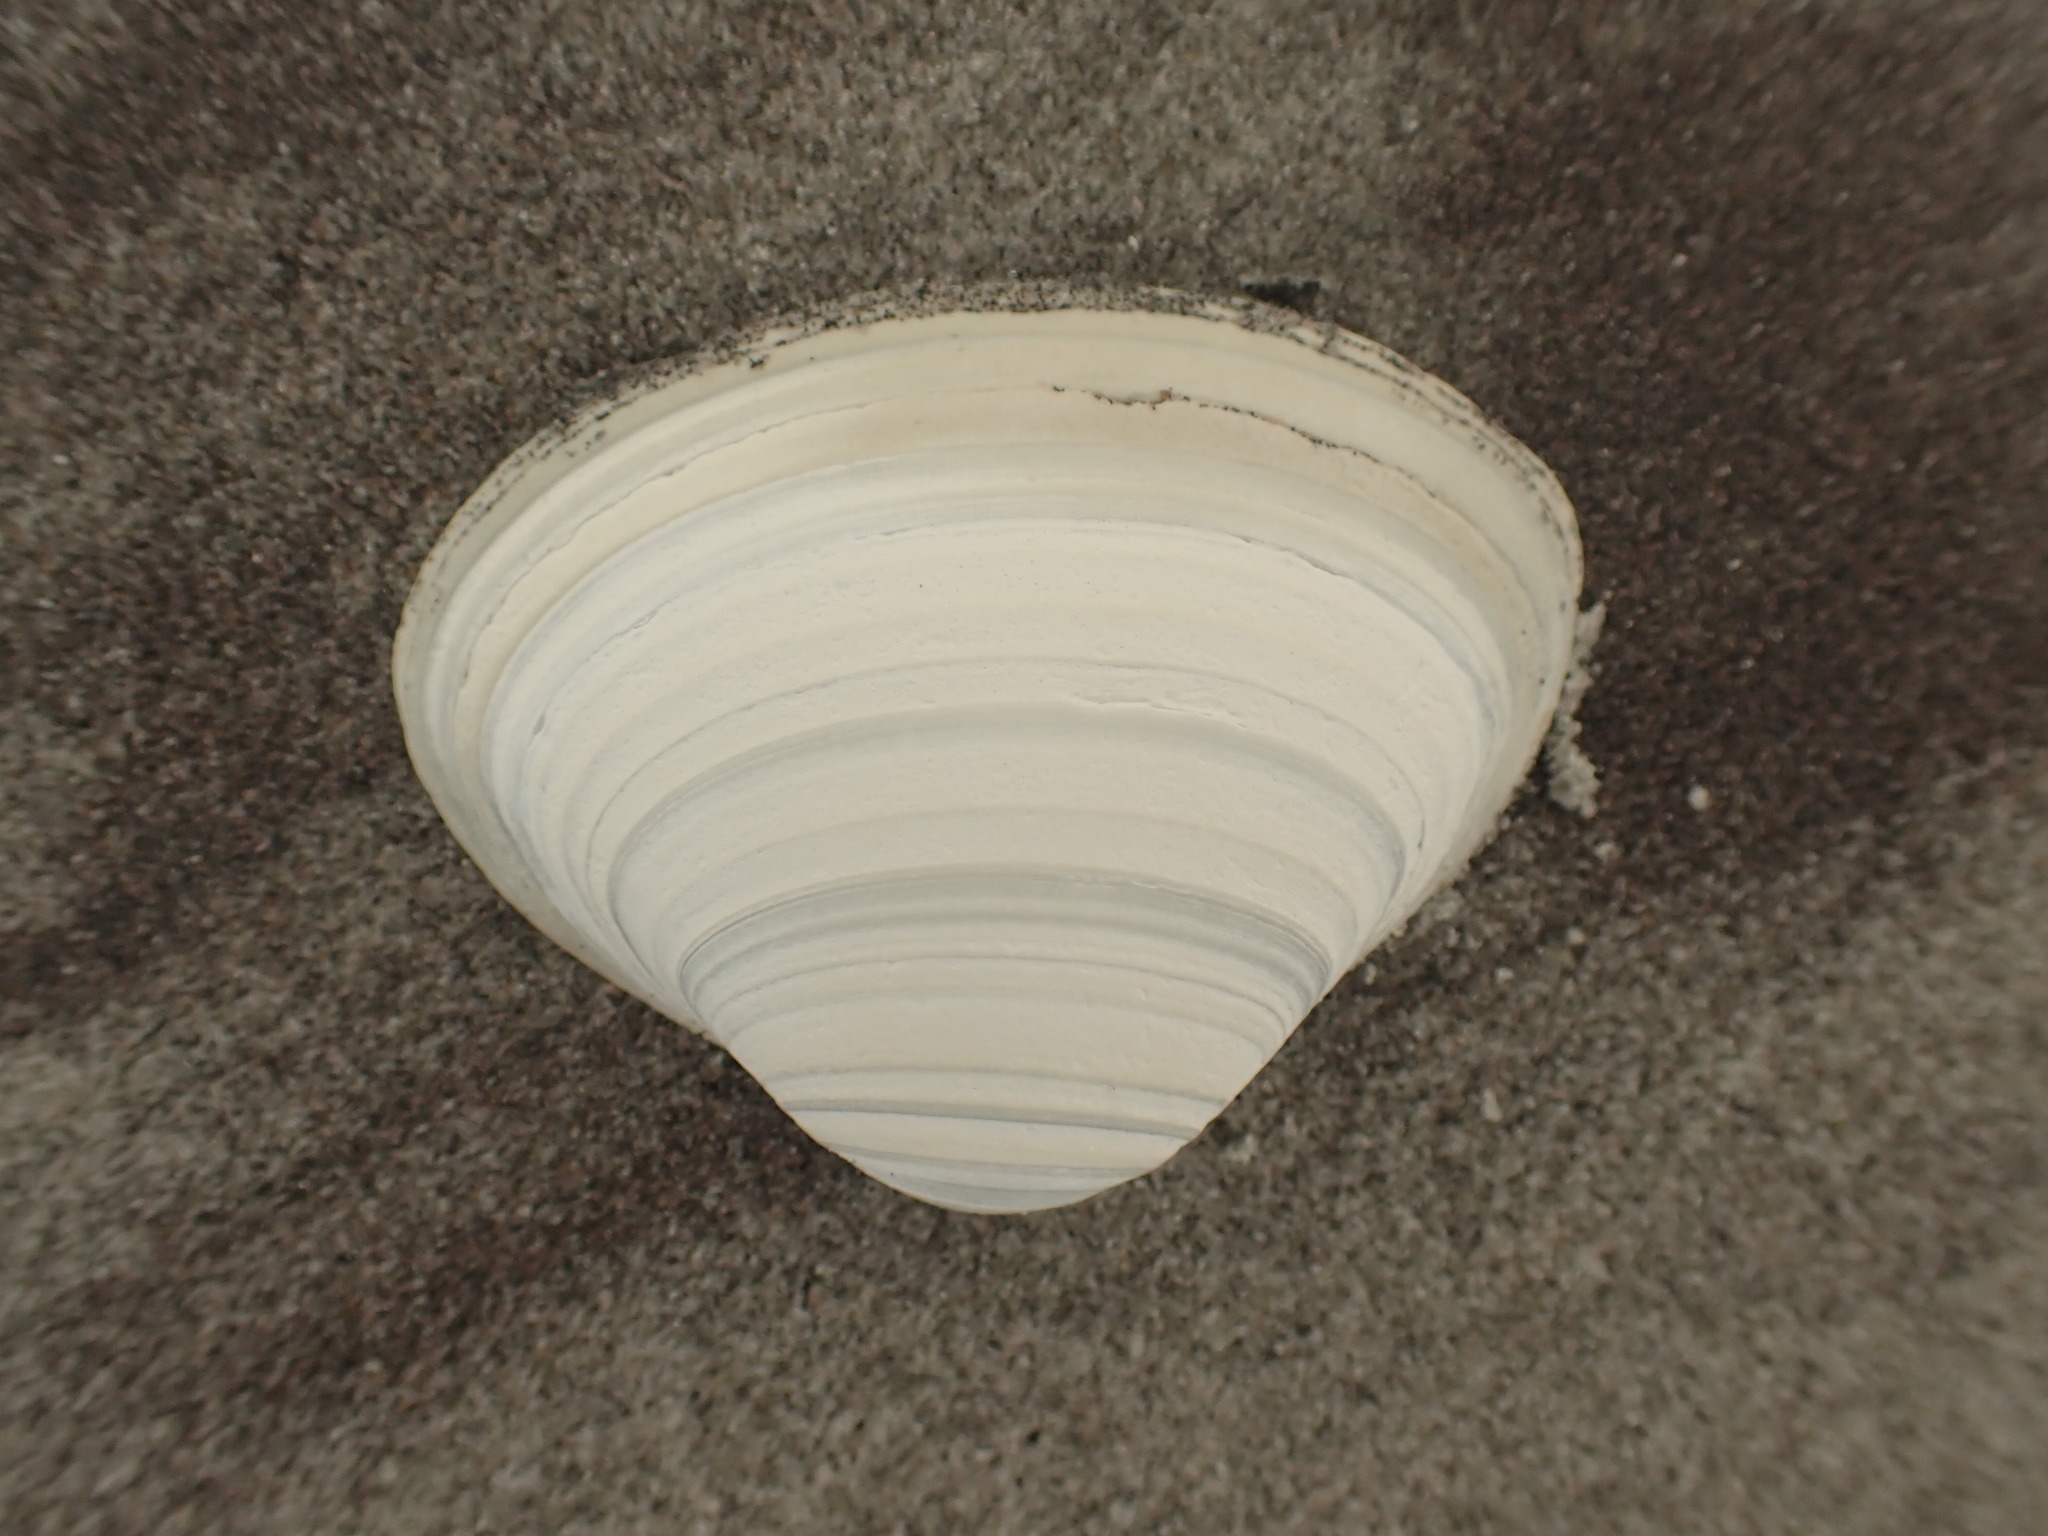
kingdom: Animalia
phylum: Mollusca
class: Bivalvia
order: Venerida
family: Mactridae
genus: Spisula
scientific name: Spisula solidissima
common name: Atlantic surf clam
